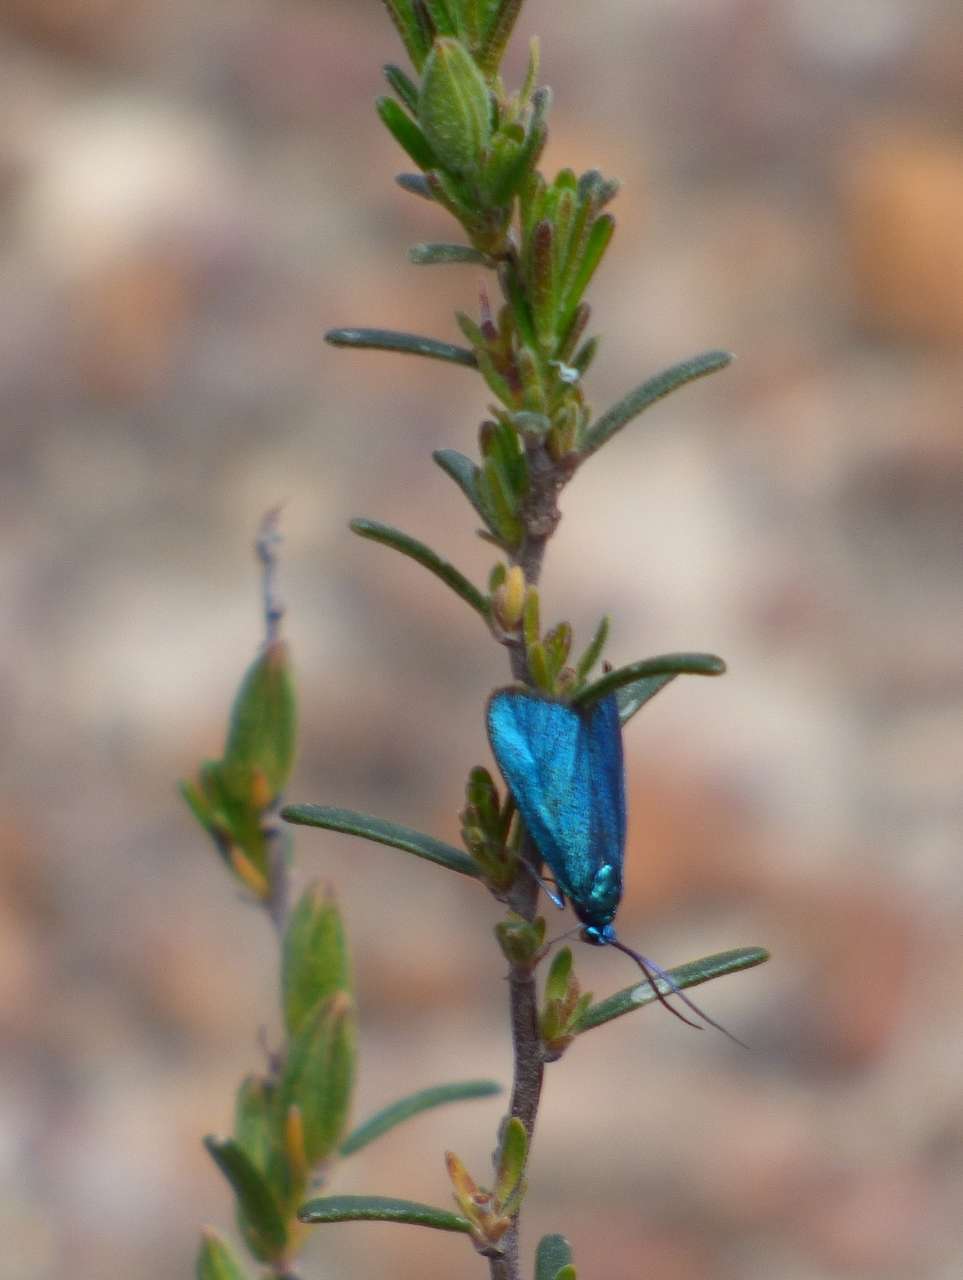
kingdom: Animalia
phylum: Arthropoda
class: Insecta
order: Lepidoptera
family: Zygaenidae
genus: Pollanisus
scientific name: Pollanisus viridipulverulenta
